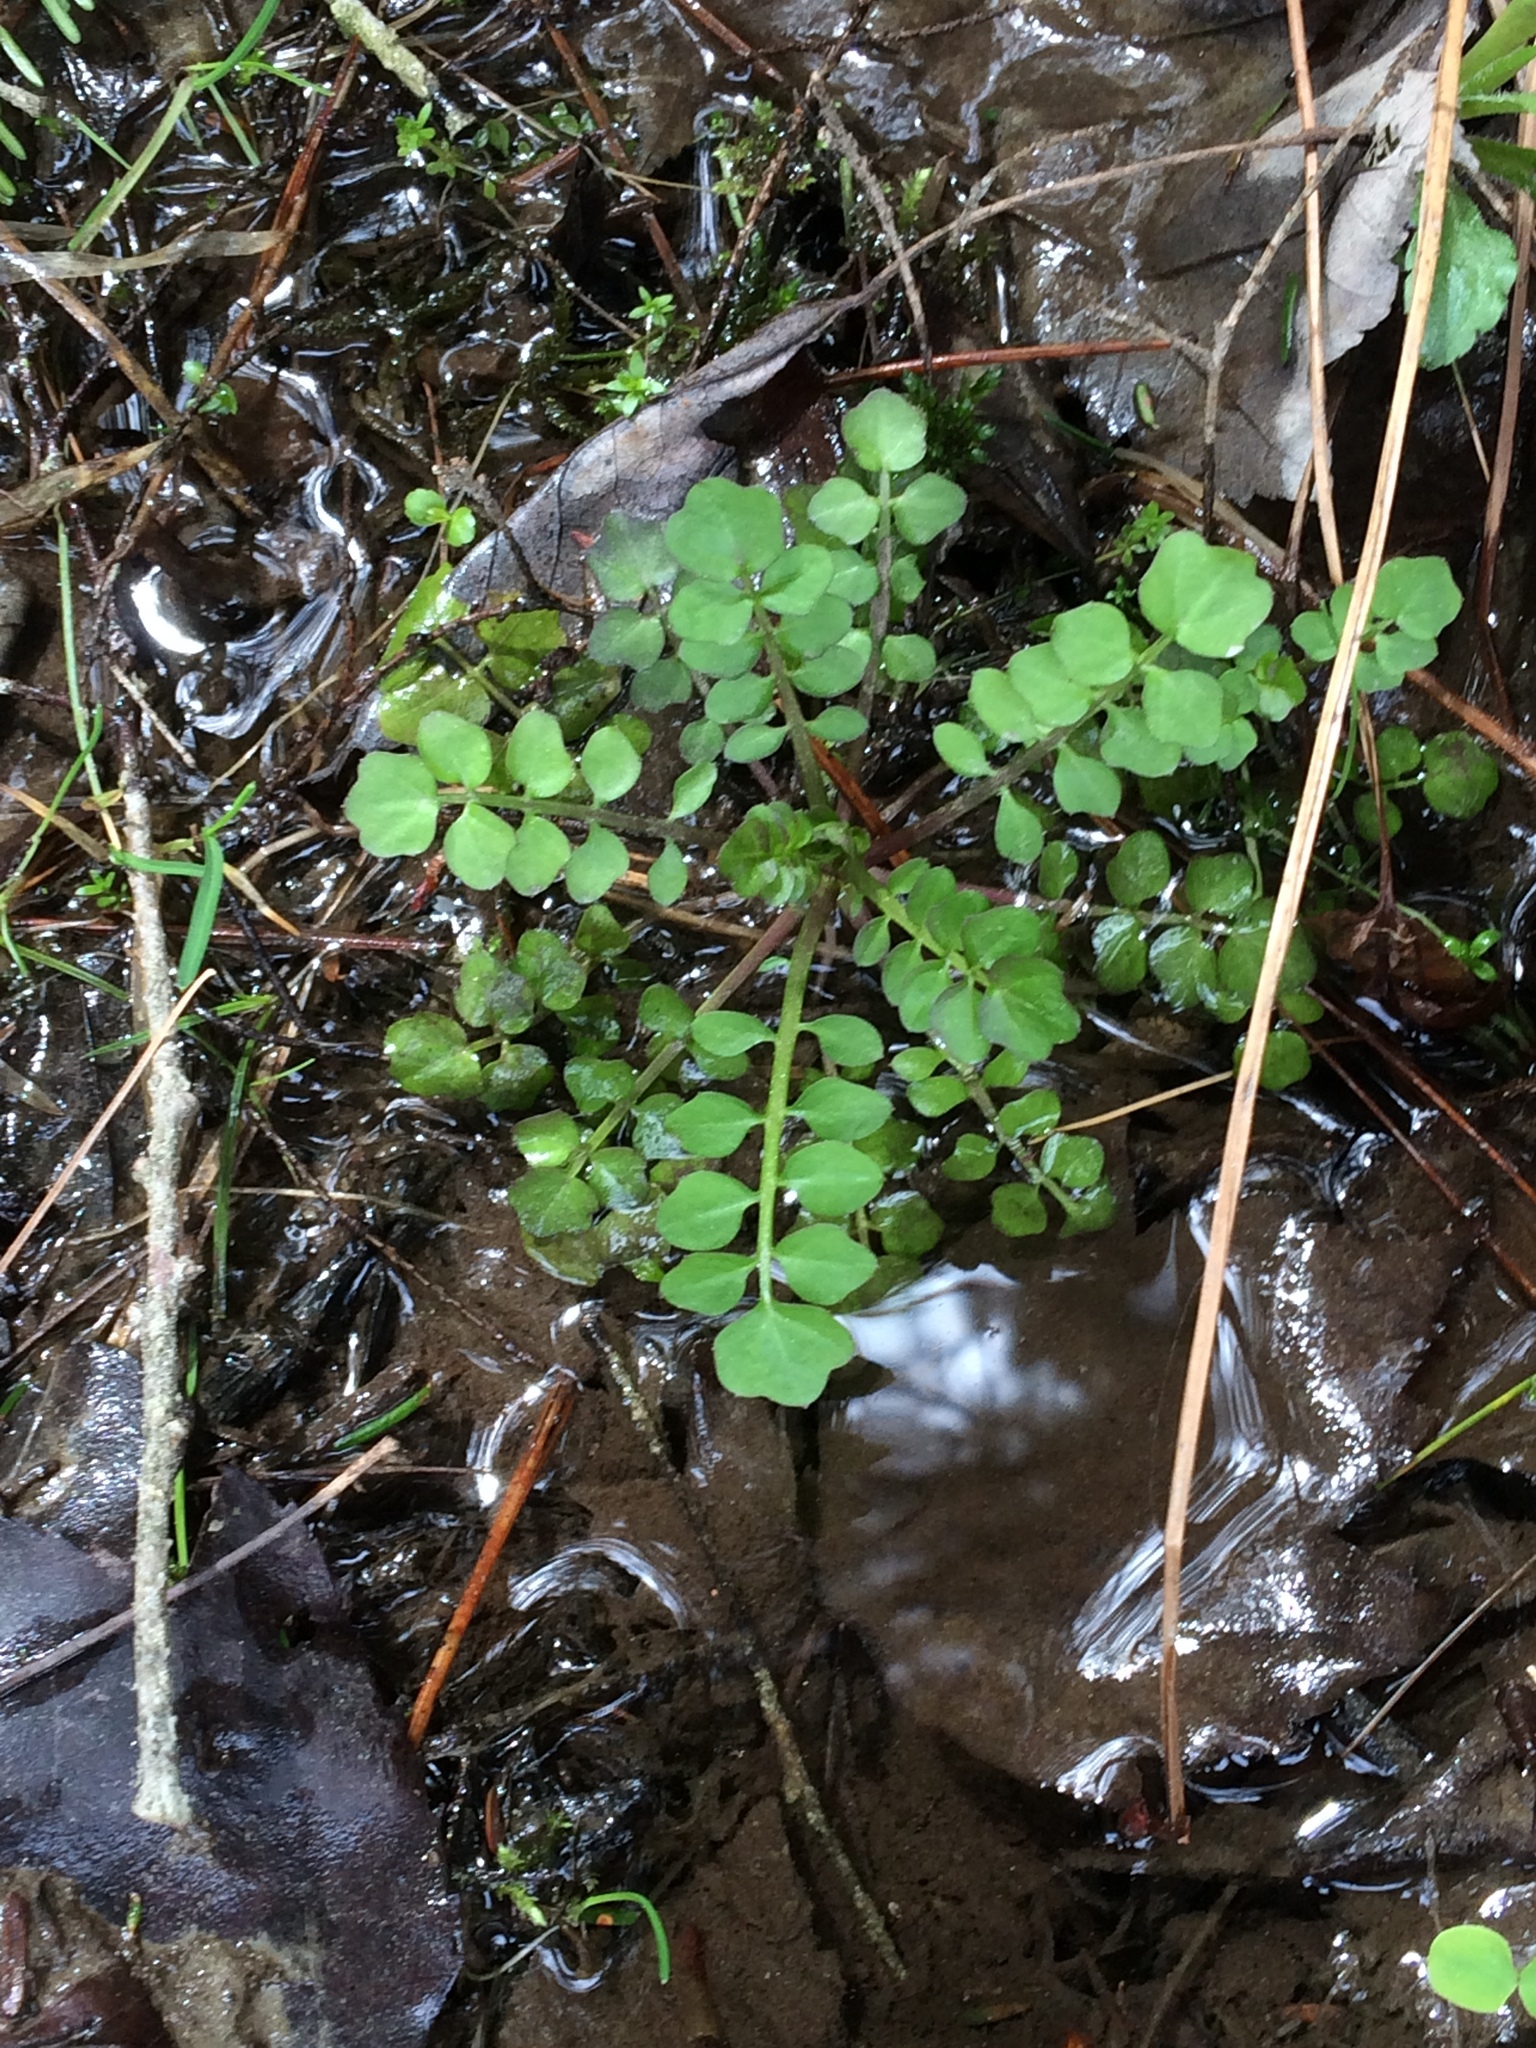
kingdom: Plantae
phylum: Tracheophyta
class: Magnoliopsida
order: Brassicales
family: Brassicaceae
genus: Cardamine
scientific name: Cardamine pensylvanica
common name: Pennsylvania bittercress
